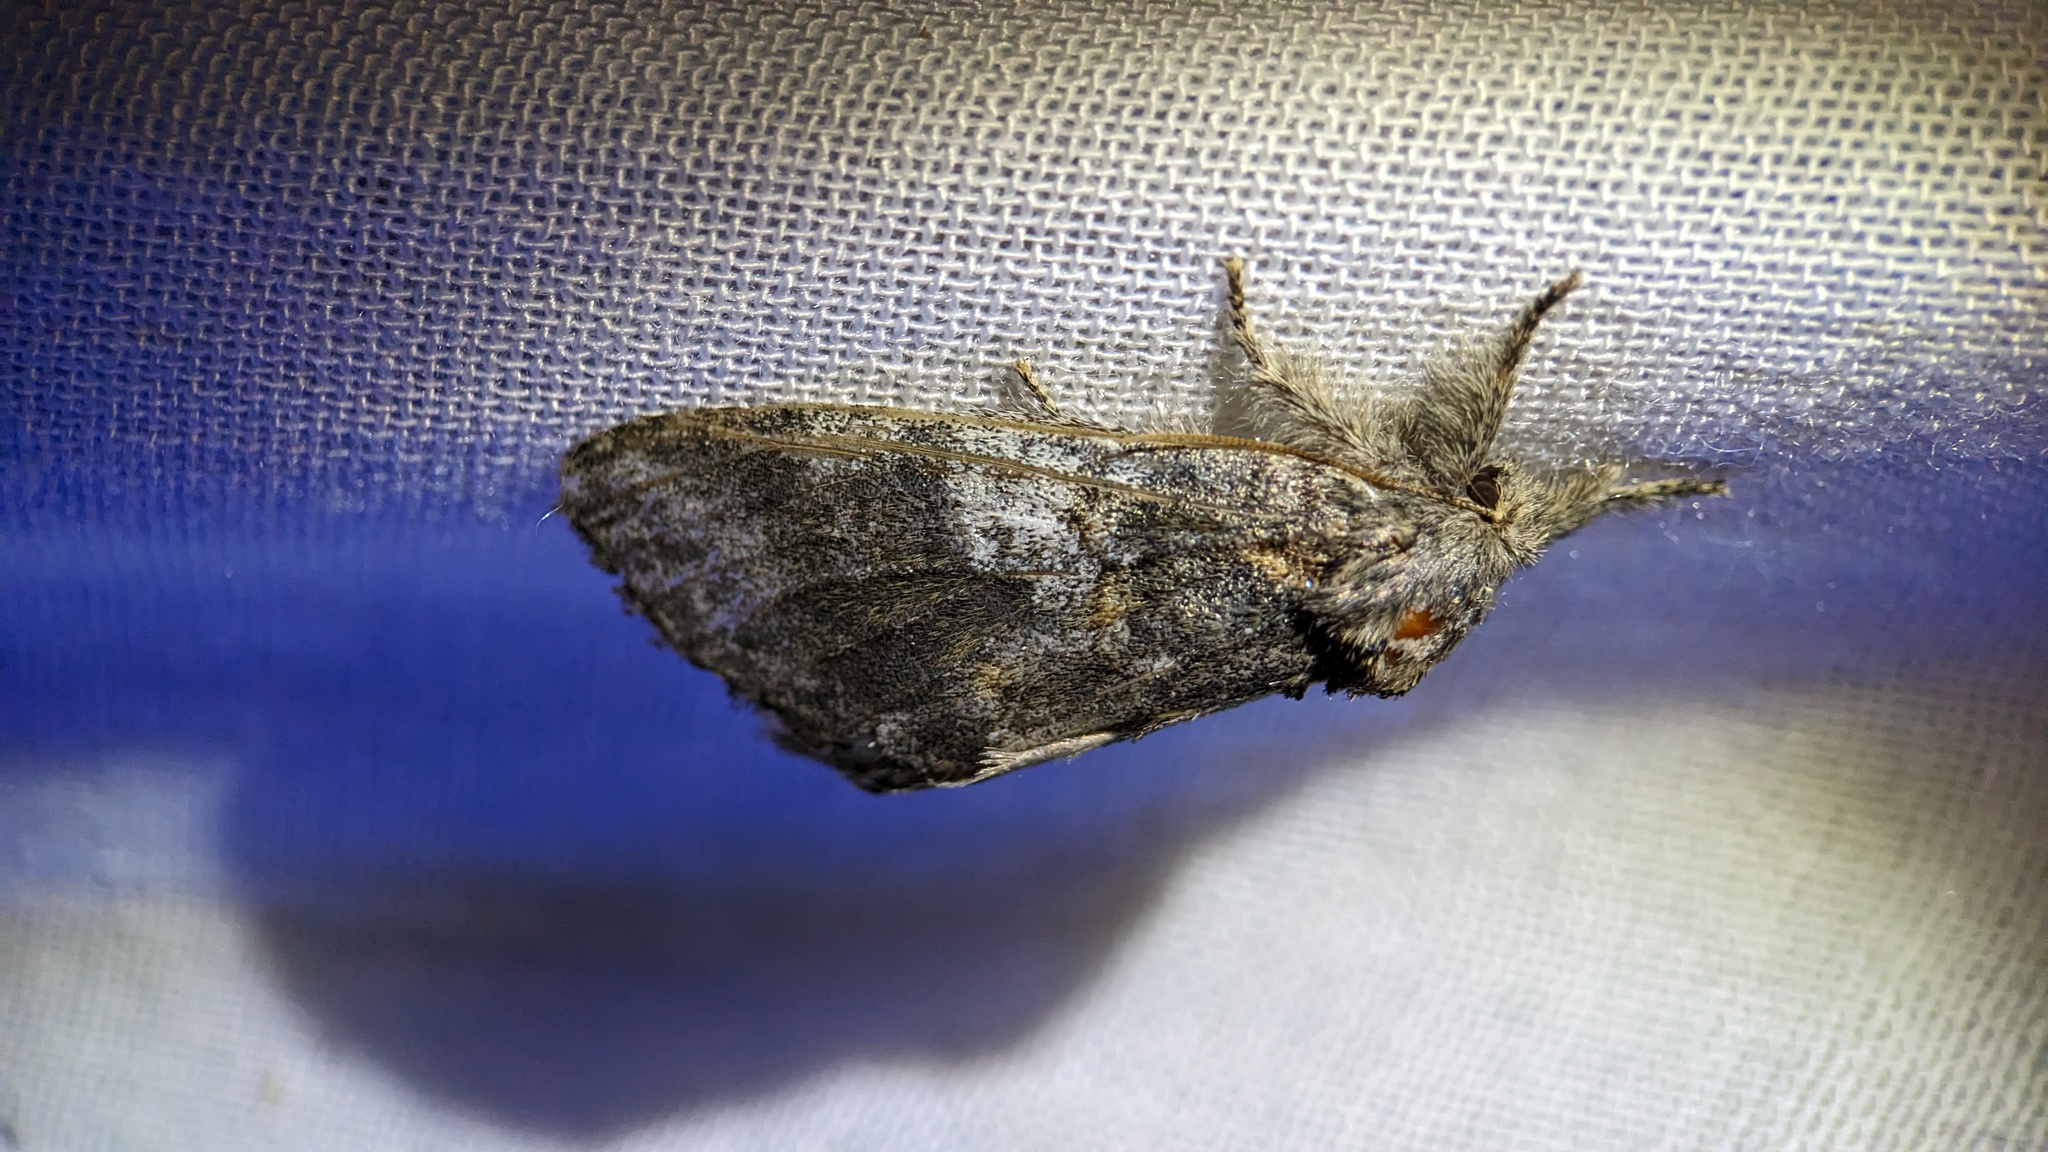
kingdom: Animalia
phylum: Arthropoda
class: Insecta
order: Lepidoptera
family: Notodontidae
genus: Peridea
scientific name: Peridea angulosa
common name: Angulose prominent
